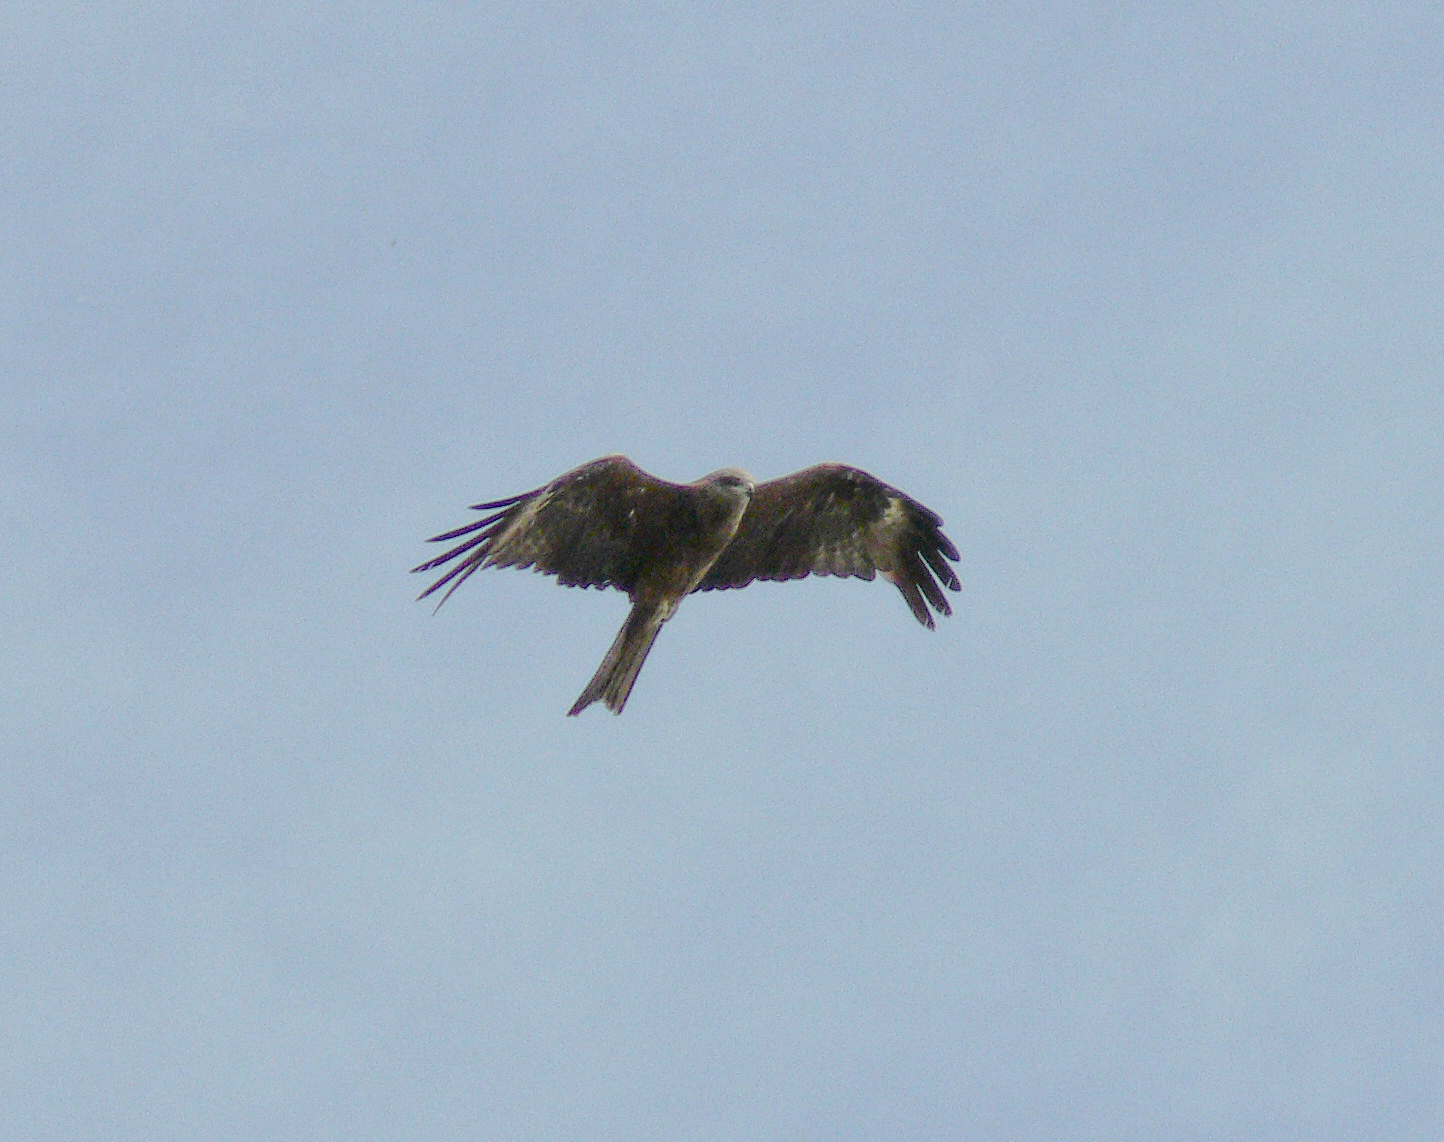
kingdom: Animalia
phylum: Chordata
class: Aves
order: Accipitriformes
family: Accipitridae
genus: Milvus
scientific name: Milvus migrans
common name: Black kite
